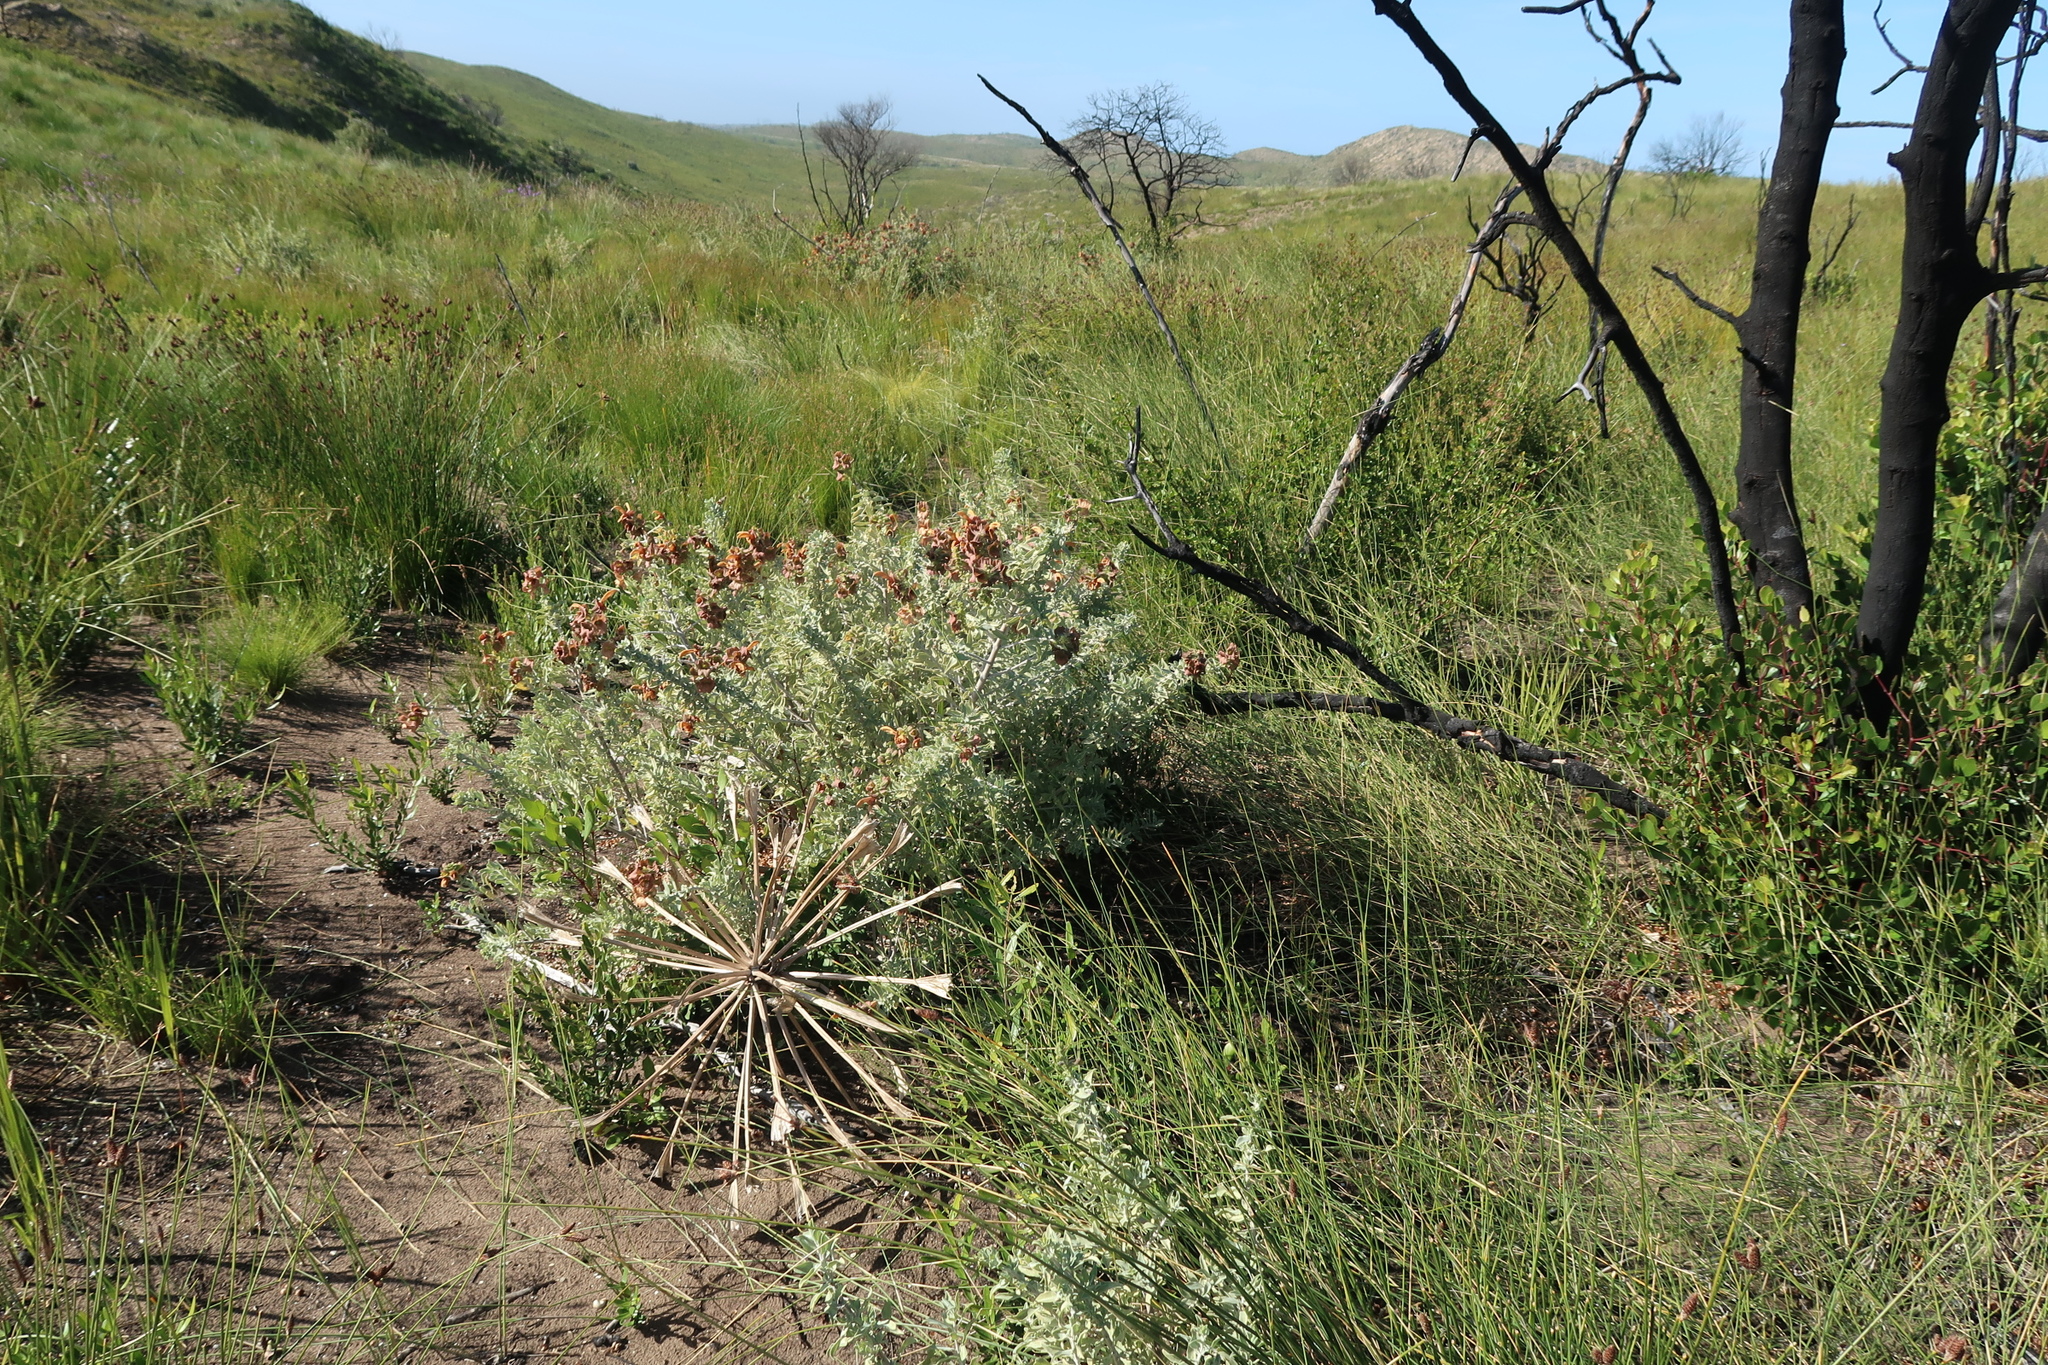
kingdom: Plantae
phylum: Tracheophyta
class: Magnoliopsida
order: Lamiales
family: Lamiaceae
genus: Salvia
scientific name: Salvia aurea
